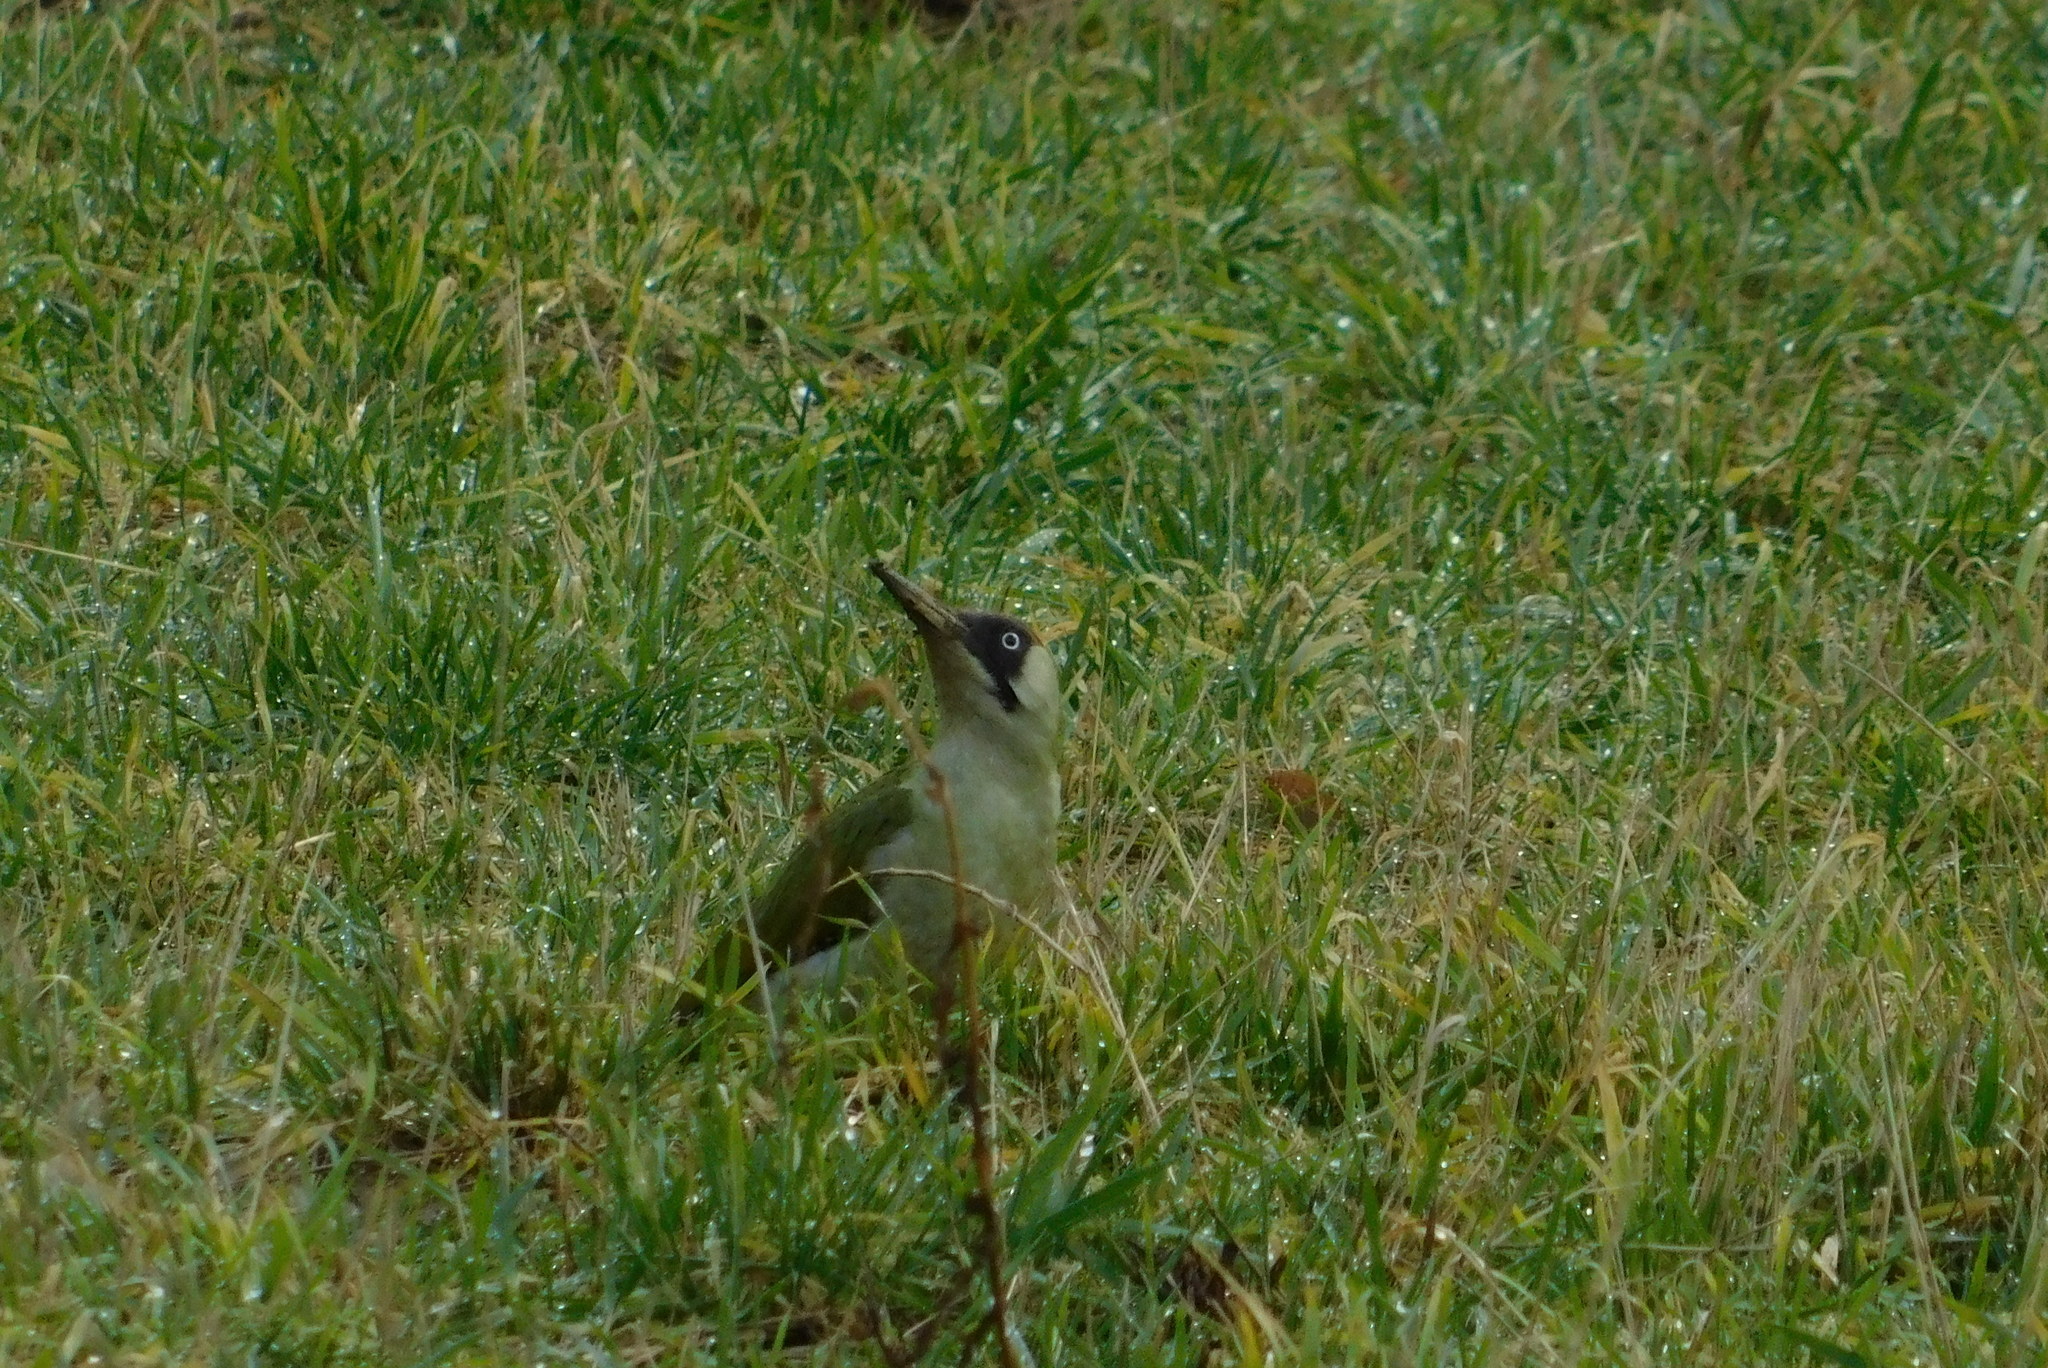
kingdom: Animalia
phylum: Chordata
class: Aves
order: Piciformes
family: Picidae
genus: Picus
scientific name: Picus viridis
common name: European green woodpecker
